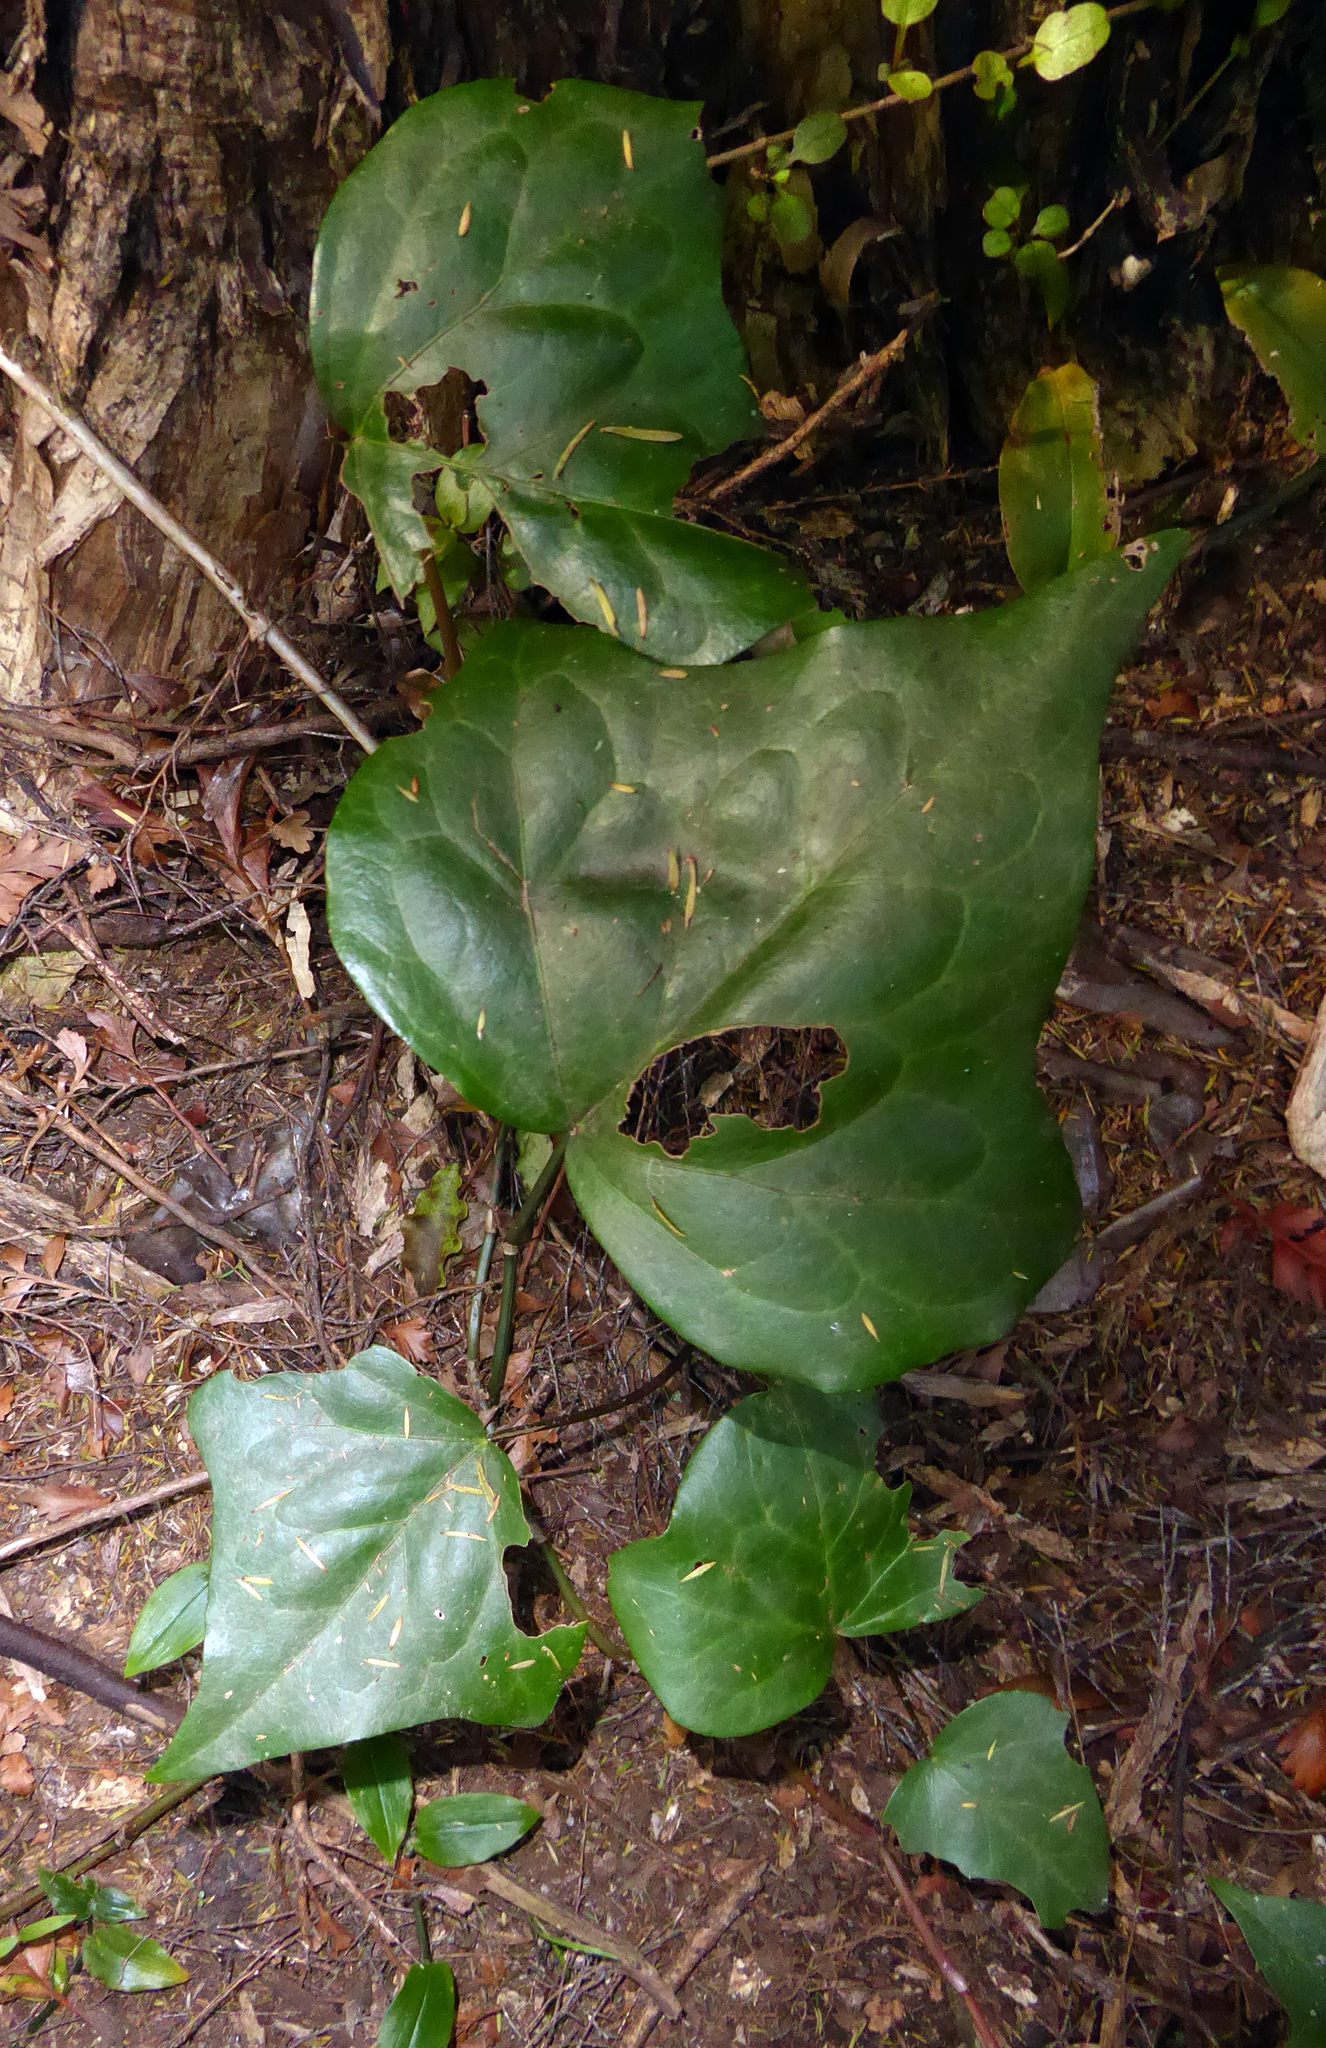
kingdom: Plantae
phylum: Tracheophyta
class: Magnoliopsida
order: Apiales
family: Araliaceae
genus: Hedera
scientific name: Hedera canariensis
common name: Madeira ivy
